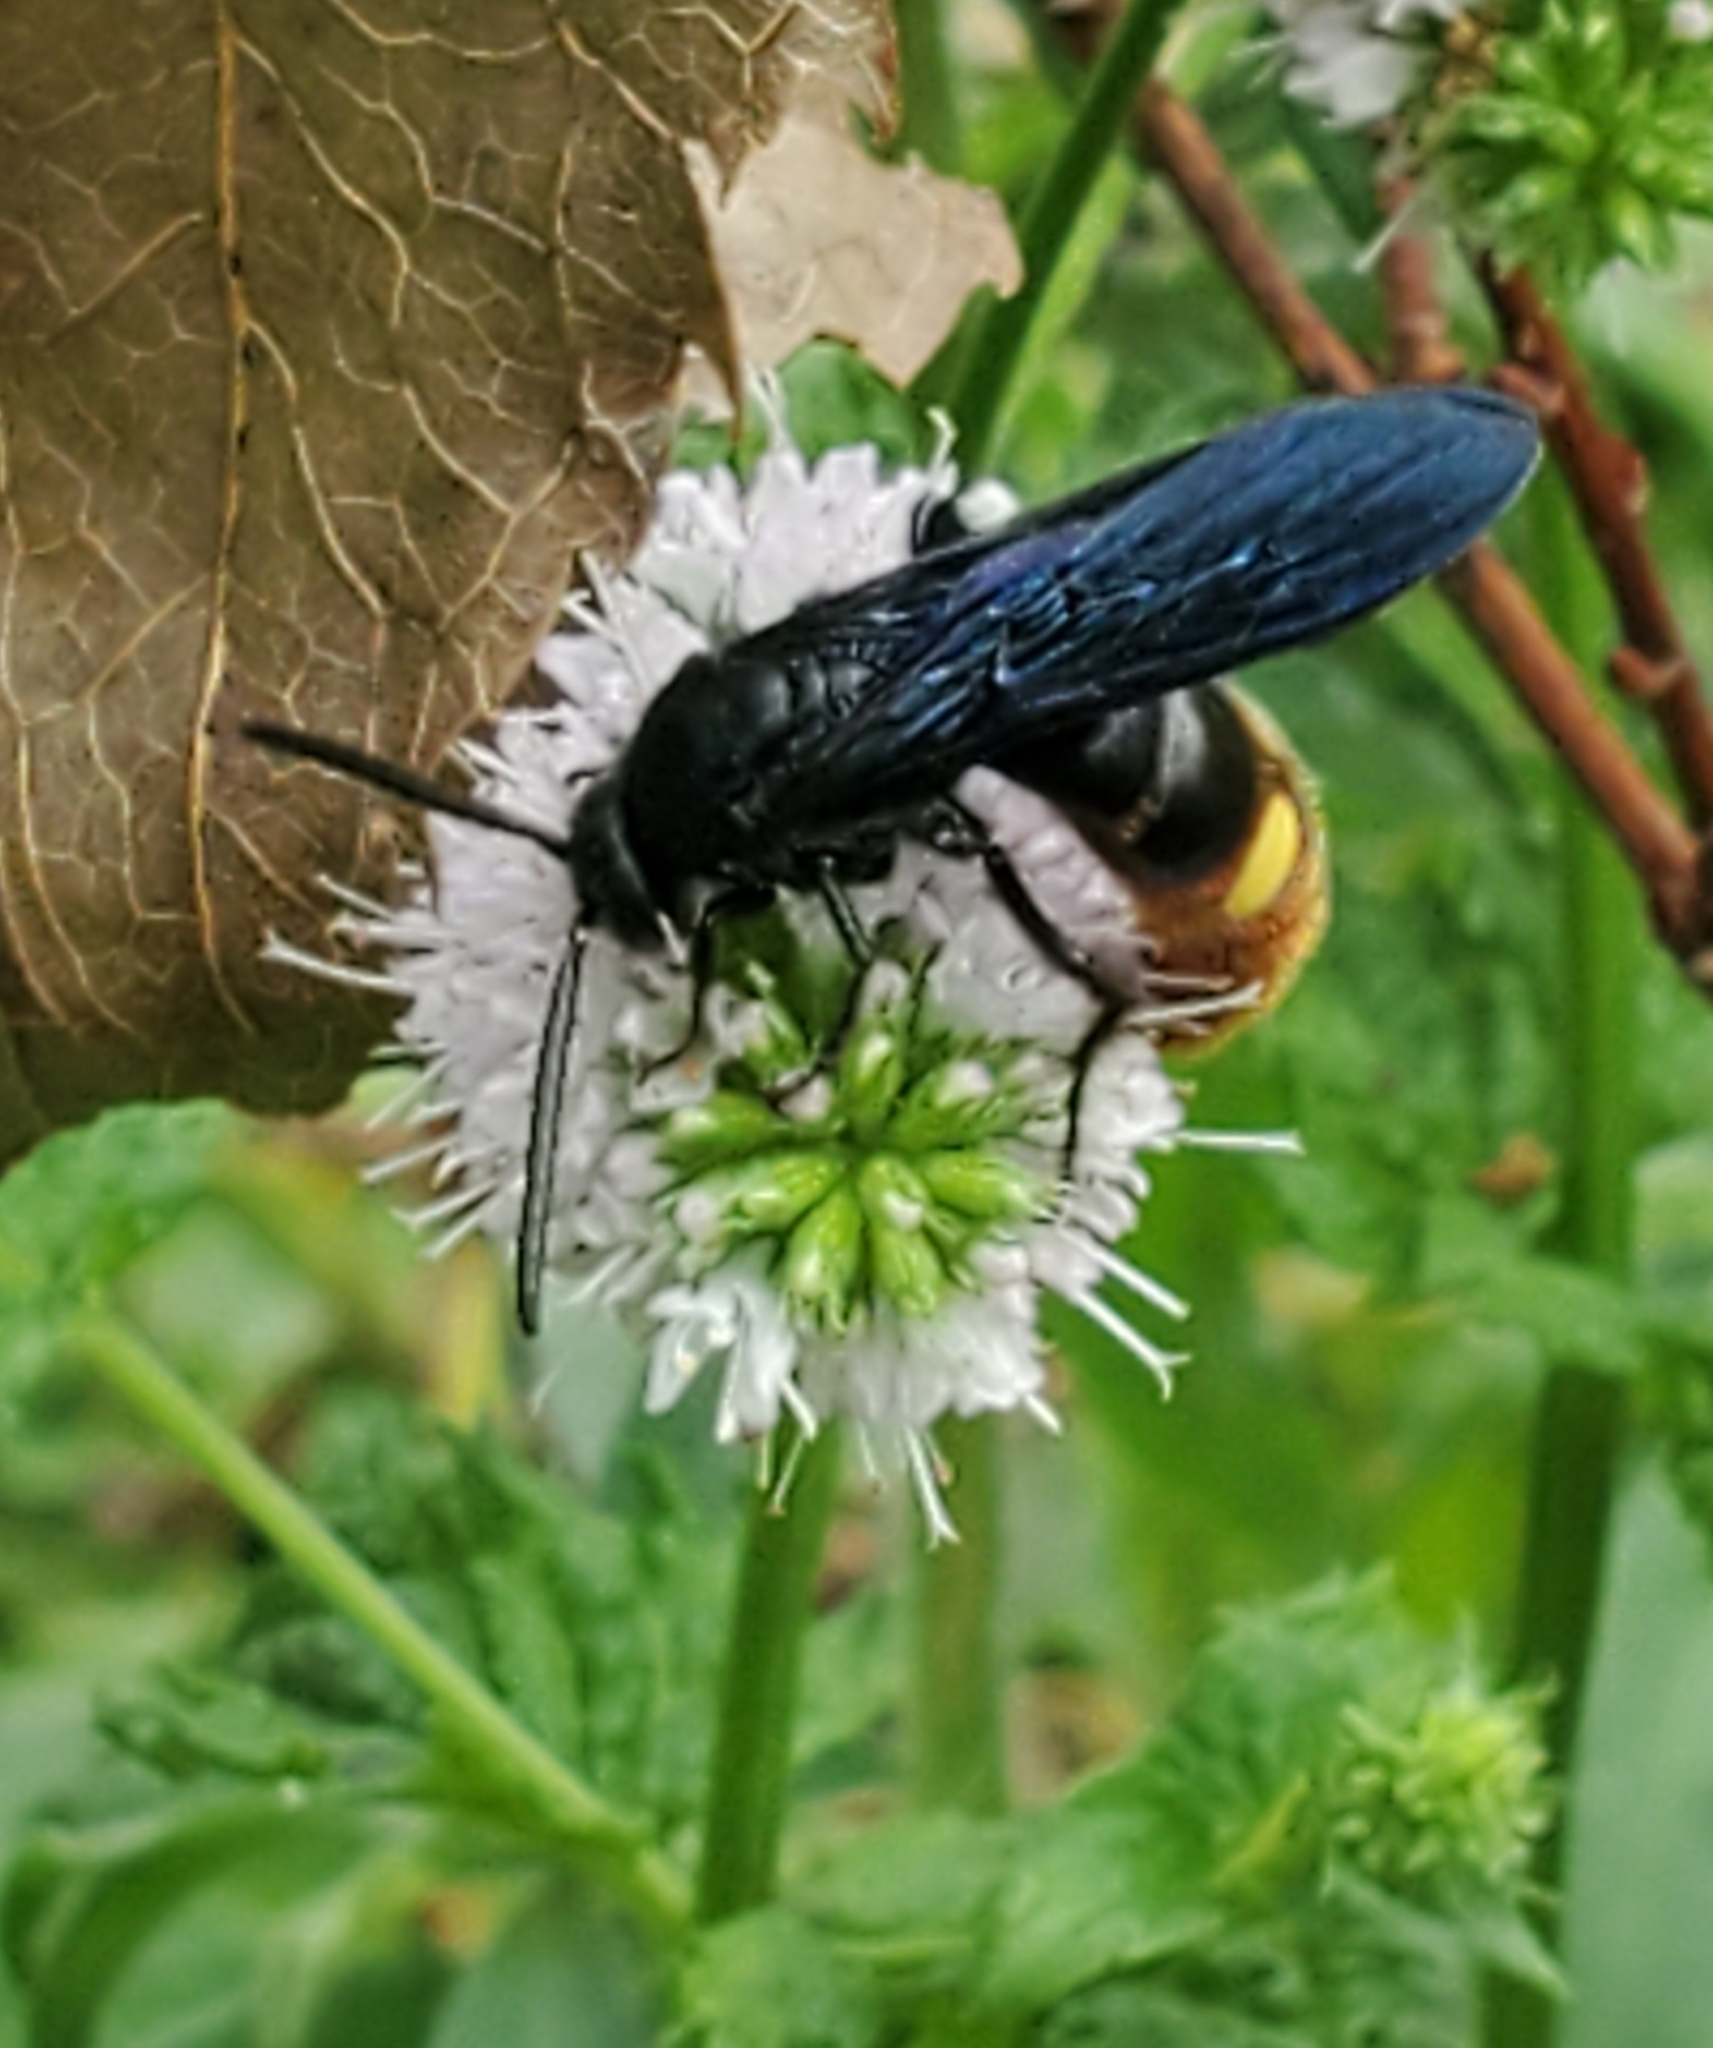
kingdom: Animalia
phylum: Arthropoda
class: Insecta
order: Hymenoptera
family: Scoliidae
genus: Scolia
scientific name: Scolia dubia
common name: Blue-winged scoliid wasp
